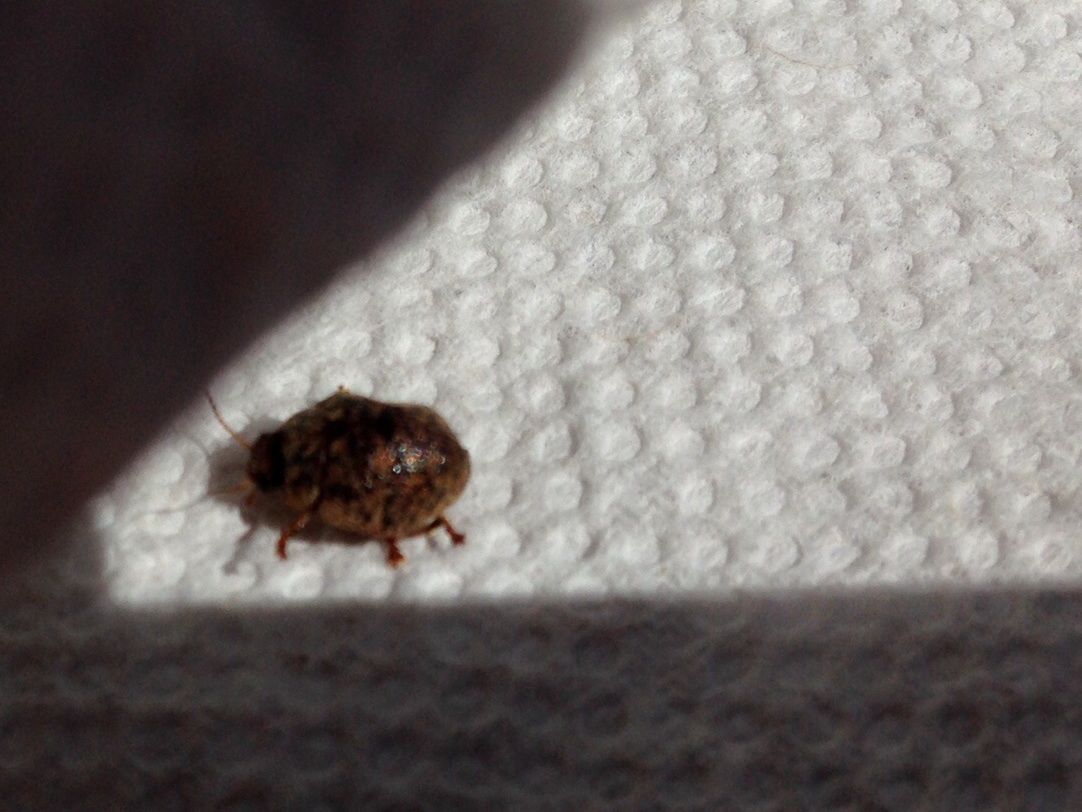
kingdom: Animalia
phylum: Arthropoda
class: Insecta
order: Coleoptera
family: Chrysomelidae
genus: Trachymela
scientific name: Trachymela sloanei
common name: Australian tortoise beetle
